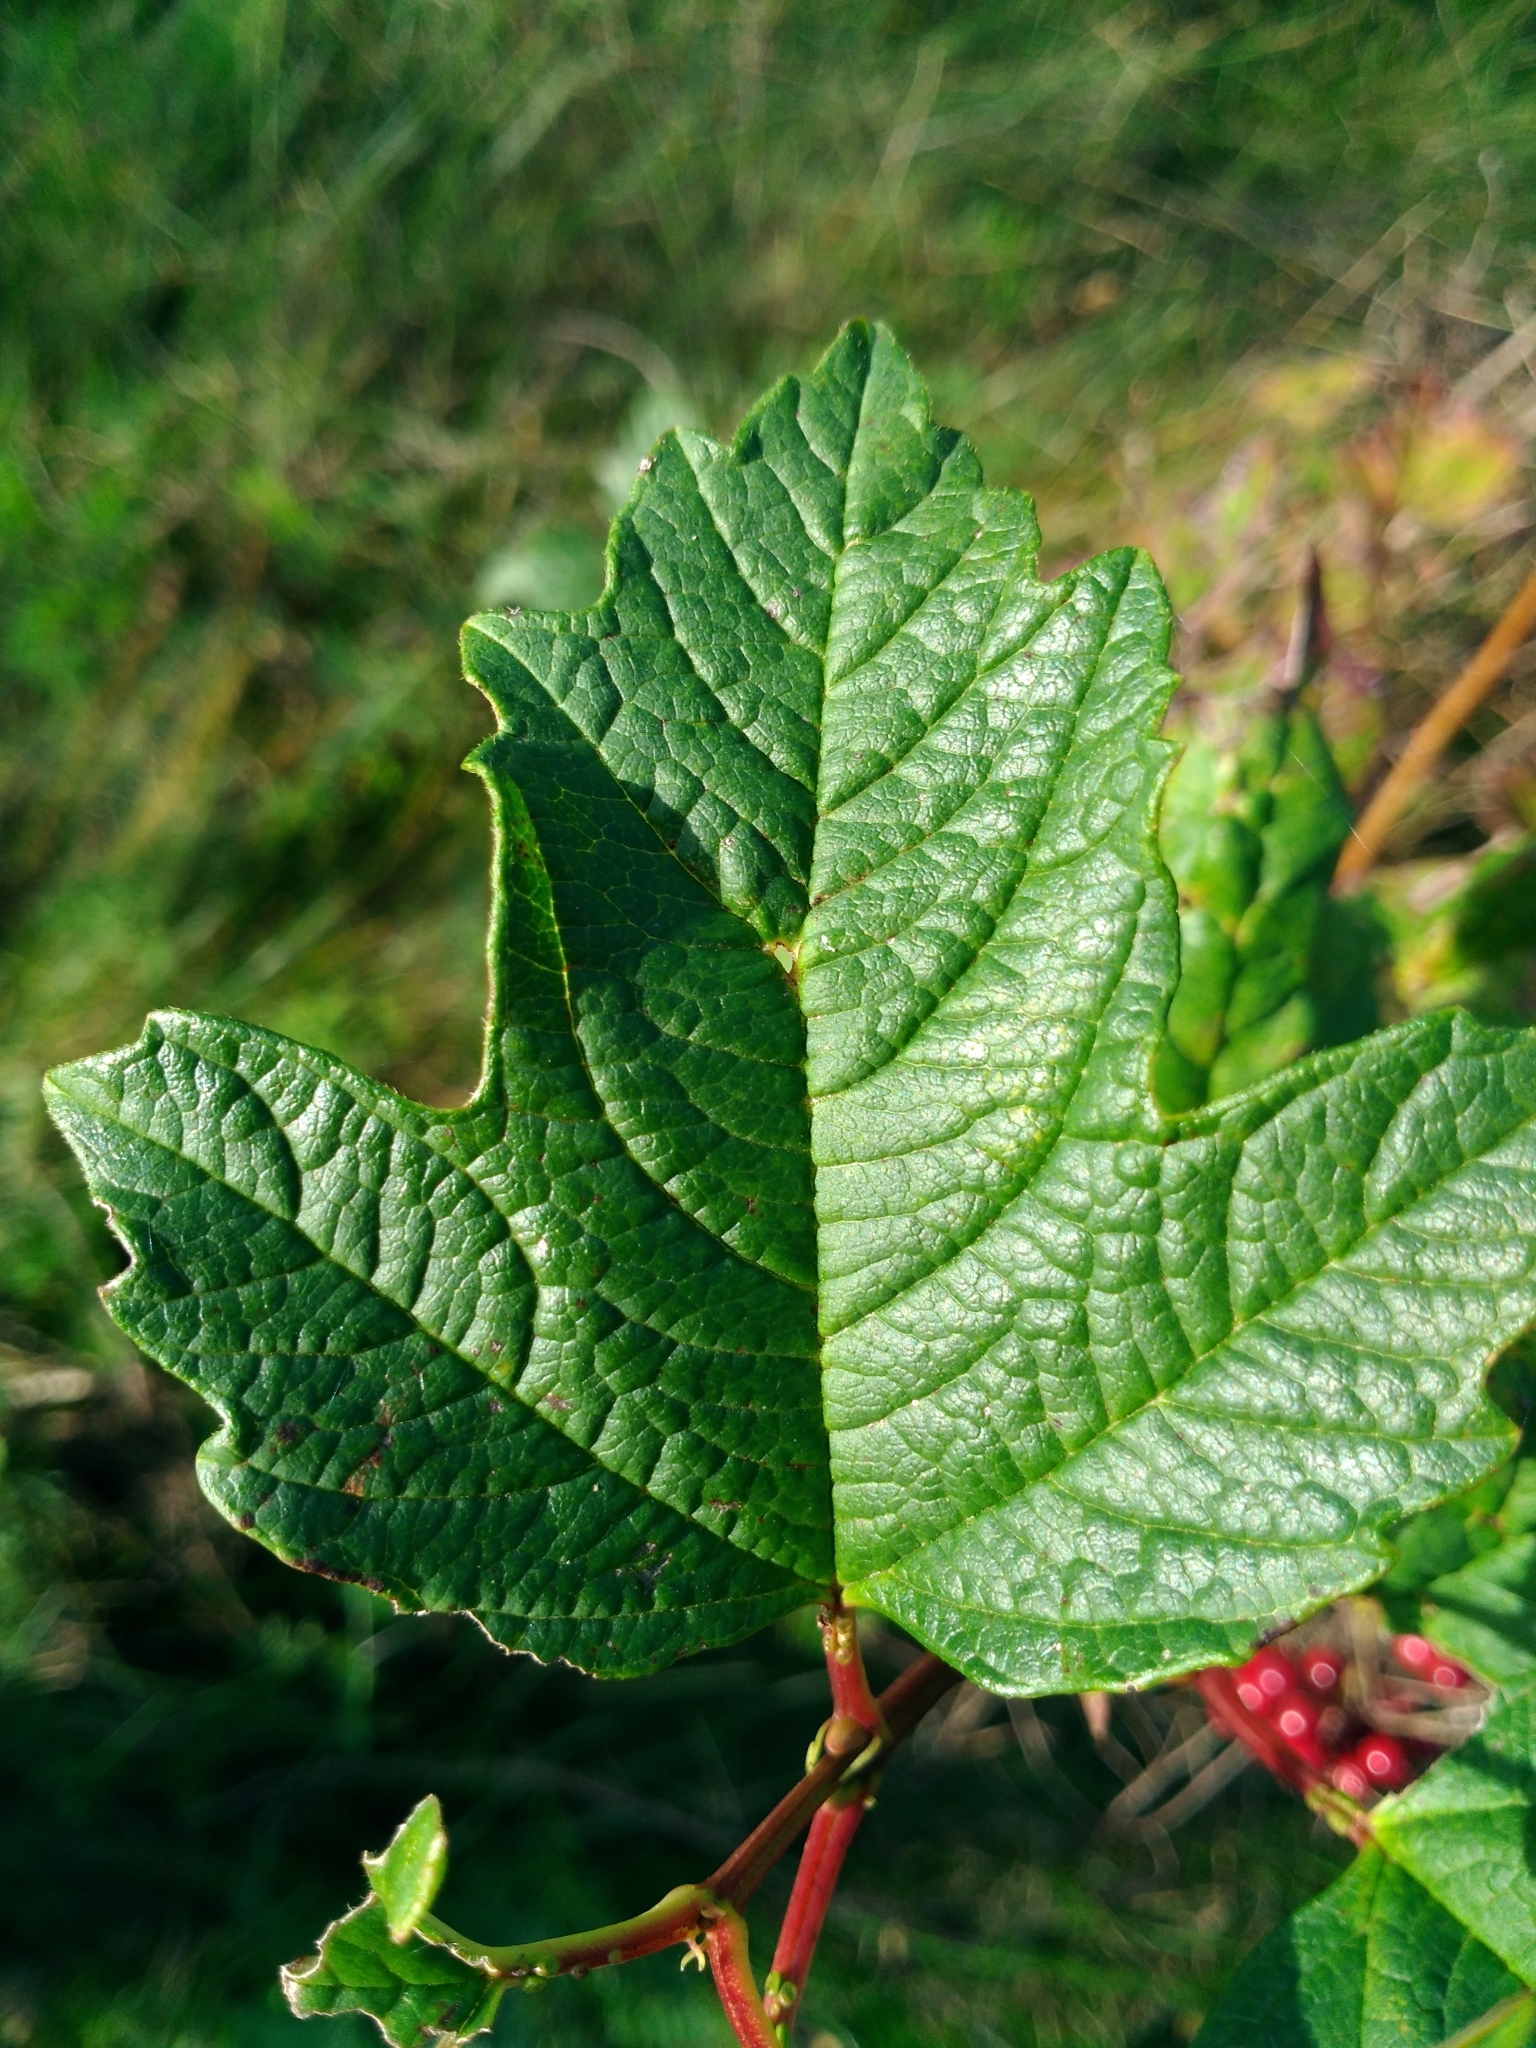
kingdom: Plantae
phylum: Tracheophyta
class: Magnoliopsida
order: Dipsacales
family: Viburnaceae
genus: Viburnum
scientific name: Viburnum trilobum
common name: American cranberrybush
